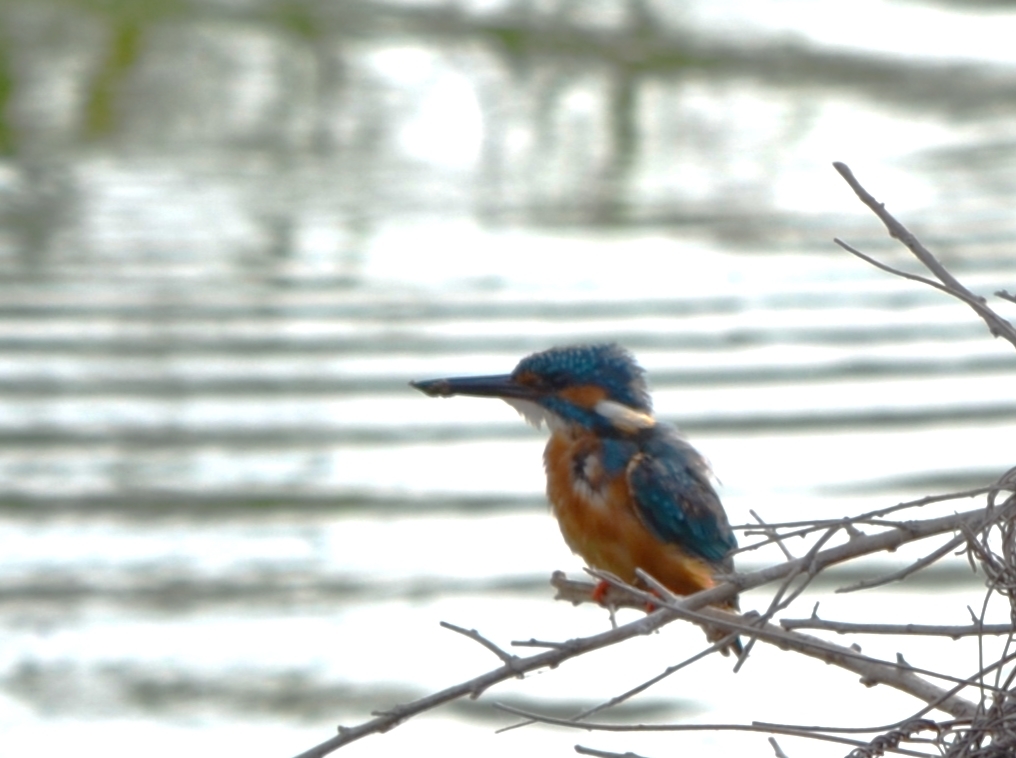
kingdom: Animalia
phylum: Chordata
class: Aves
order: Coraciiformes
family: Alcedinidae
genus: Alcedo
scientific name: Alcedo atthis
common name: Common kingfisher
